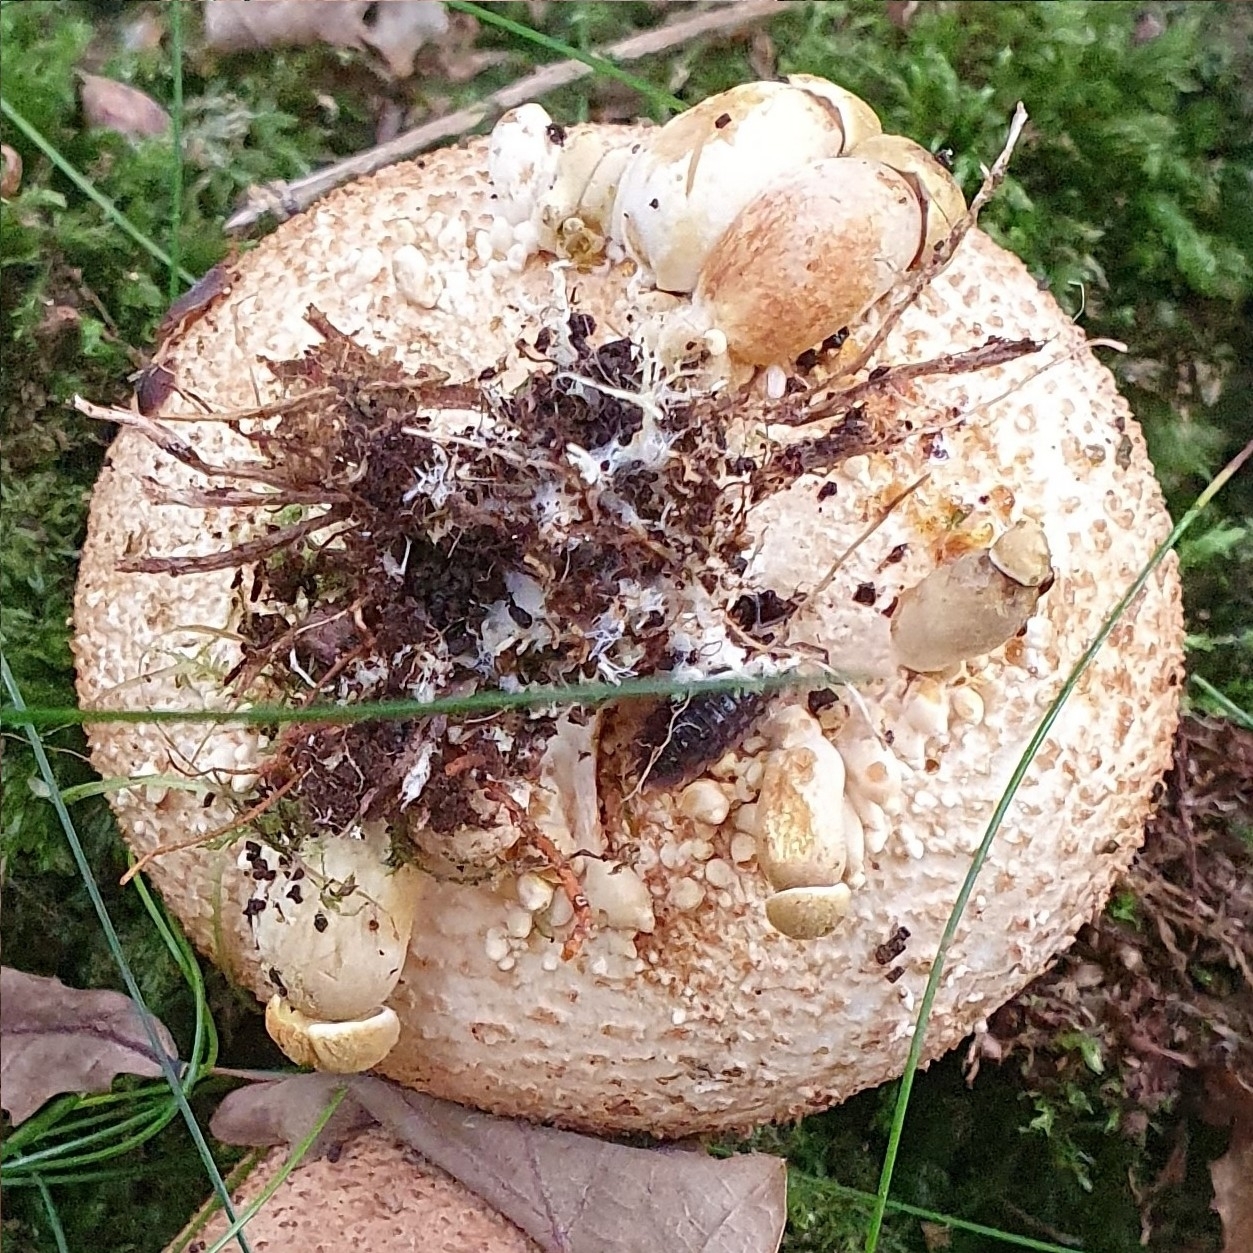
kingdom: Fungi
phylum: Basidiomycota
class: Agaricomycetes
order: Boletales
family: Boletaceae
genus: Pseudoboletus
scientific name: Pseudoboletus parasiticus
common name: Parasitic bolete
